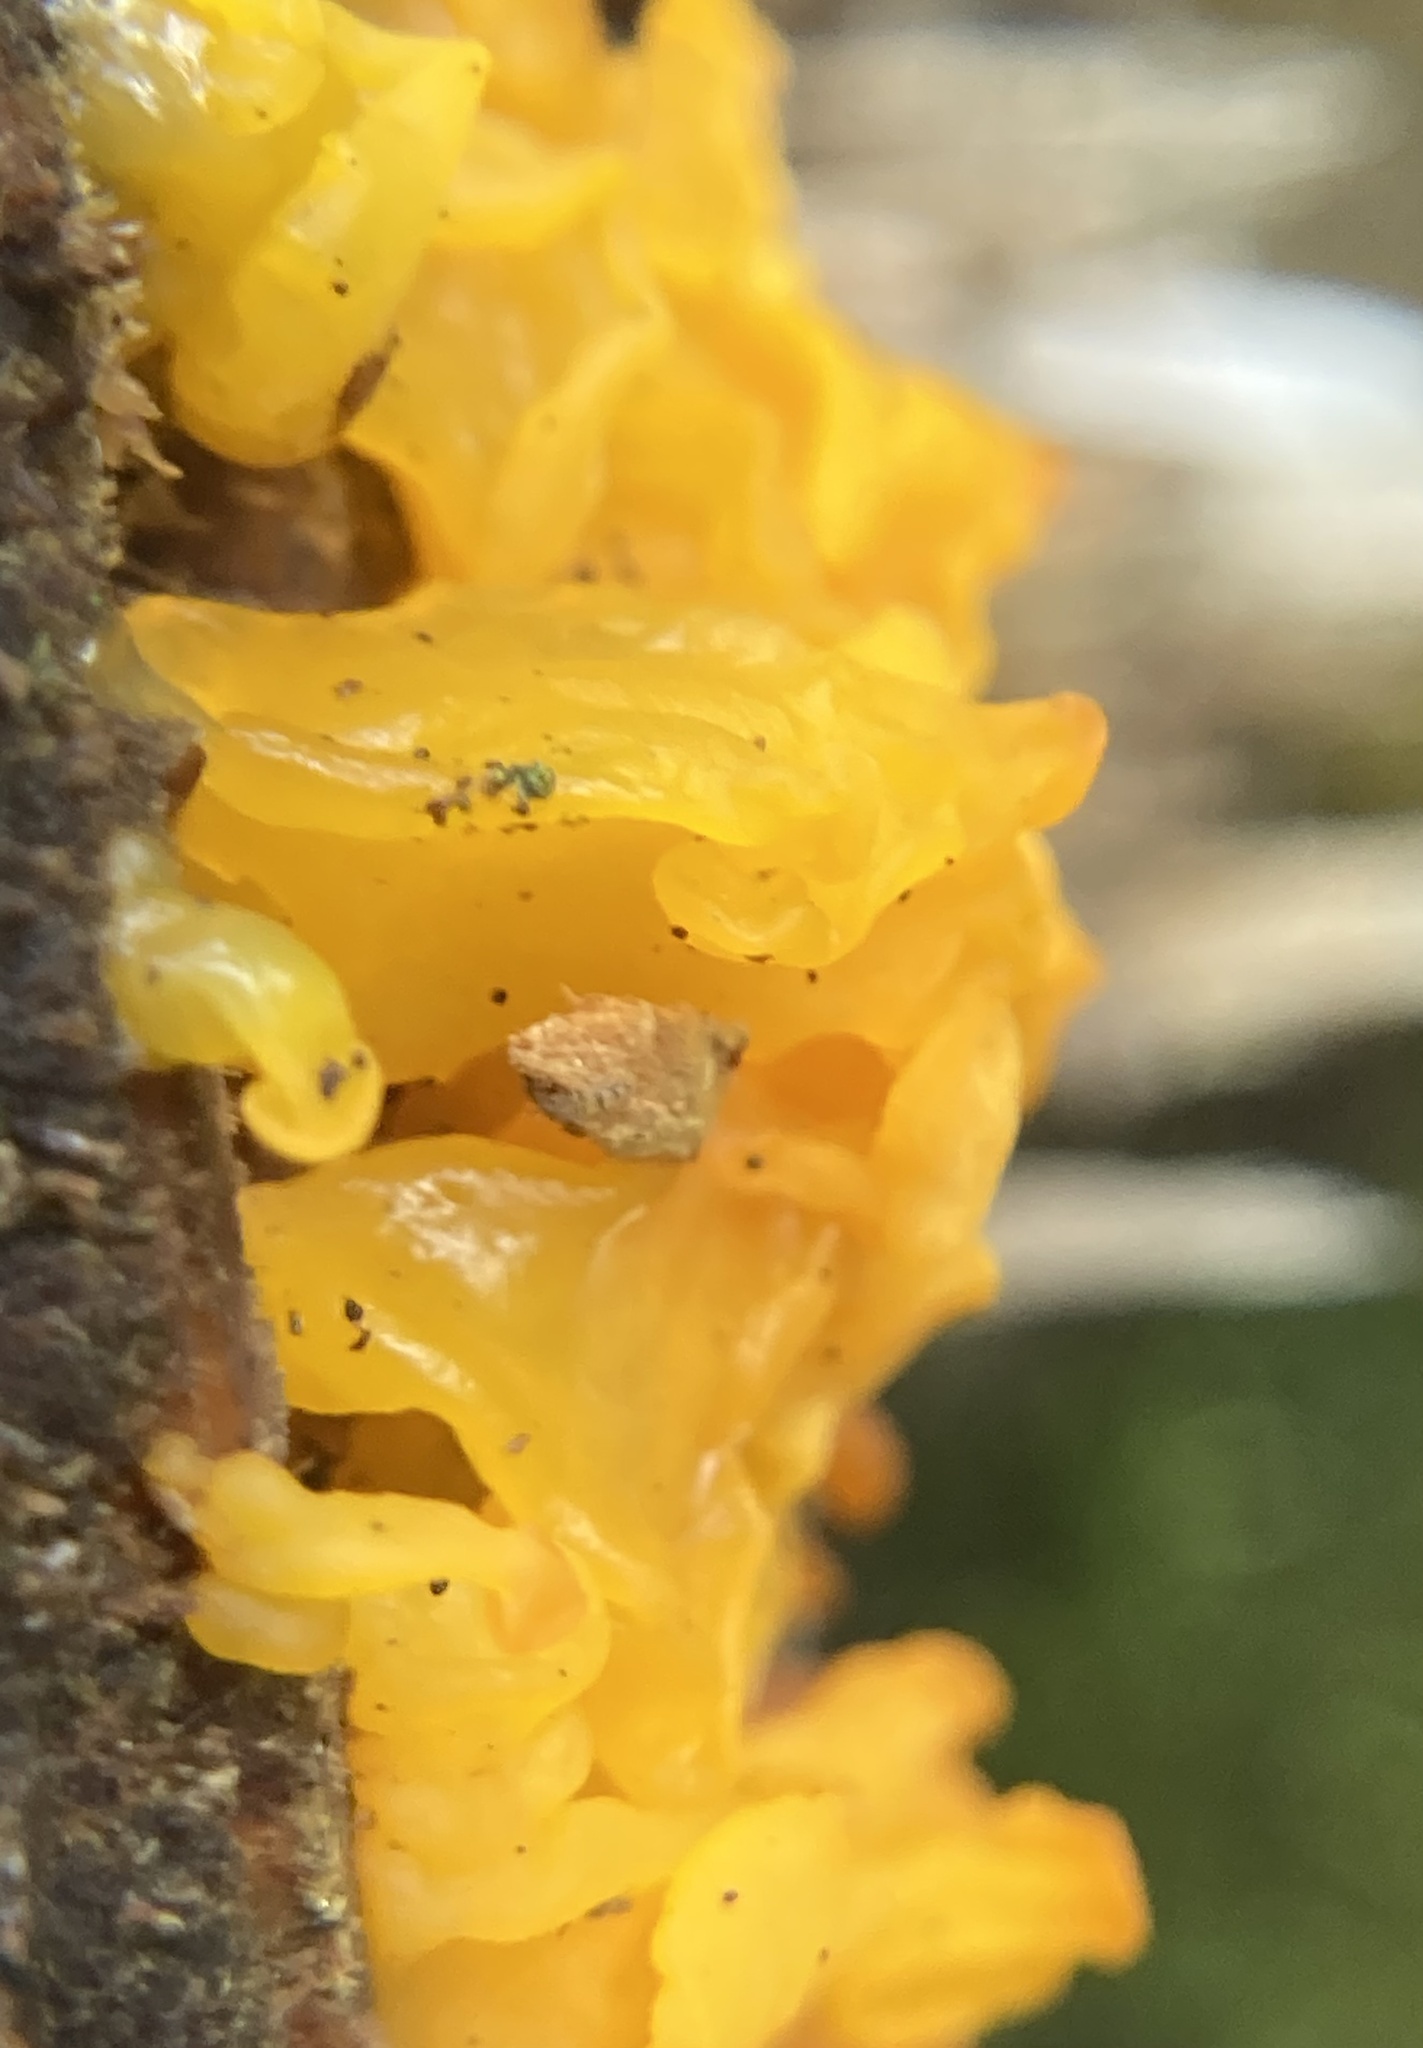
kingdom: Fungi
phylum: Basidiomycota
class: Dacrymycetes
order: Dacrymycetales
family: Dacrymycetaceae
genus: Dacrymyces
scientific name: Dacrymyces chrysospermus
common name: Orange jelly spot
